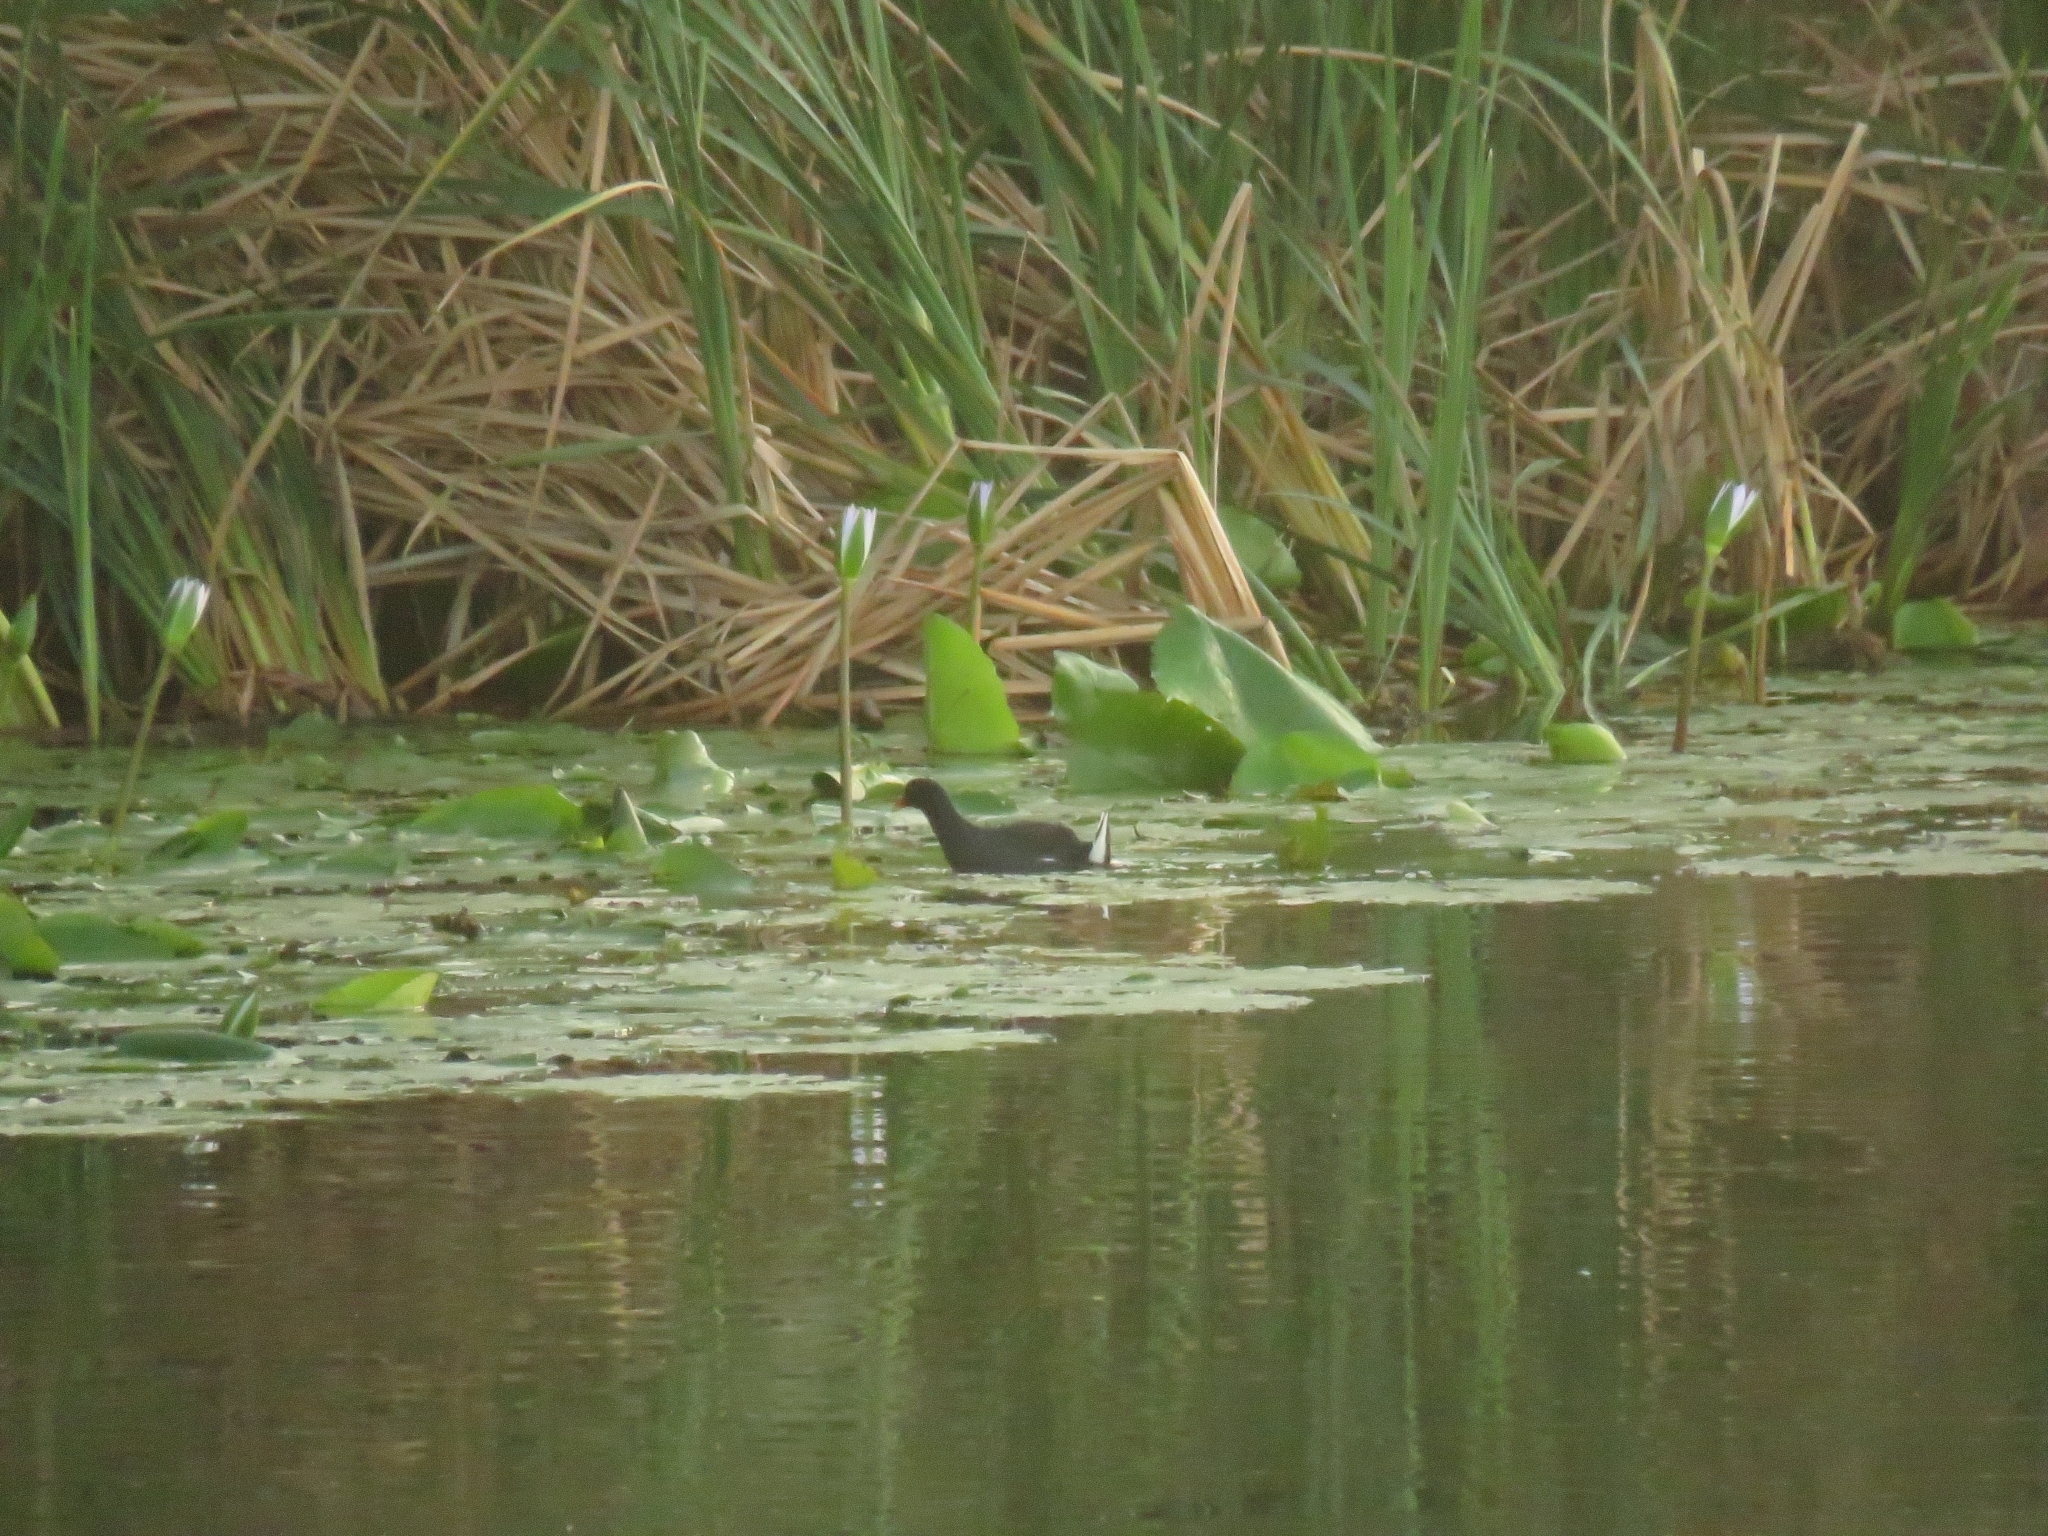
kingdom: Animalia
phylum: Chordata
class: Aves
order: Gruiformes
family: Rallidae
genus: Gallinula
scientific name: Gallinula chloropus
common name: Common moorhen
